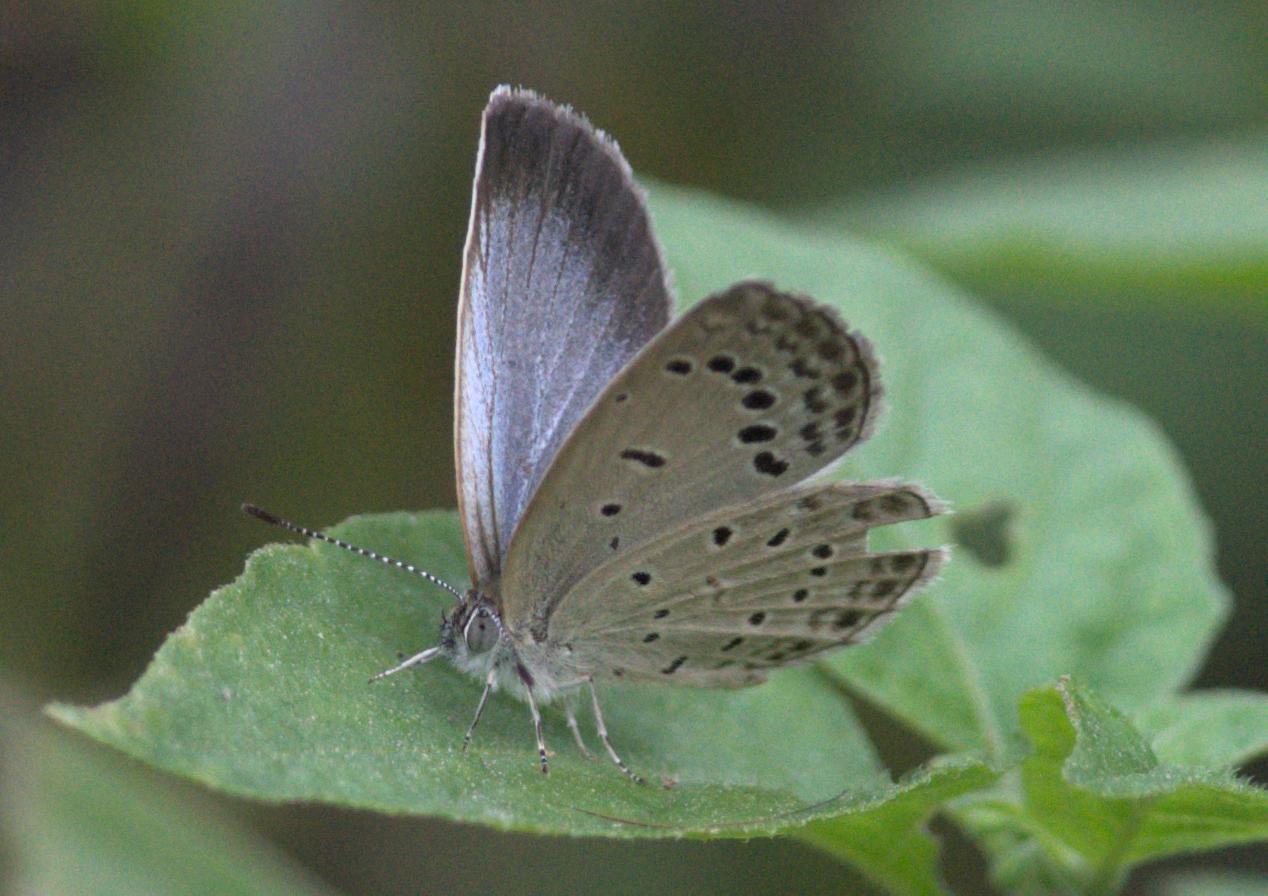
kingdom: Animalia
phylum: Arthropoda
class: Insecta
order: Lepidoptera
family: Lycaenidae
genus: Pseudozizeeria
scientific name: Pseudozizeeria maha
